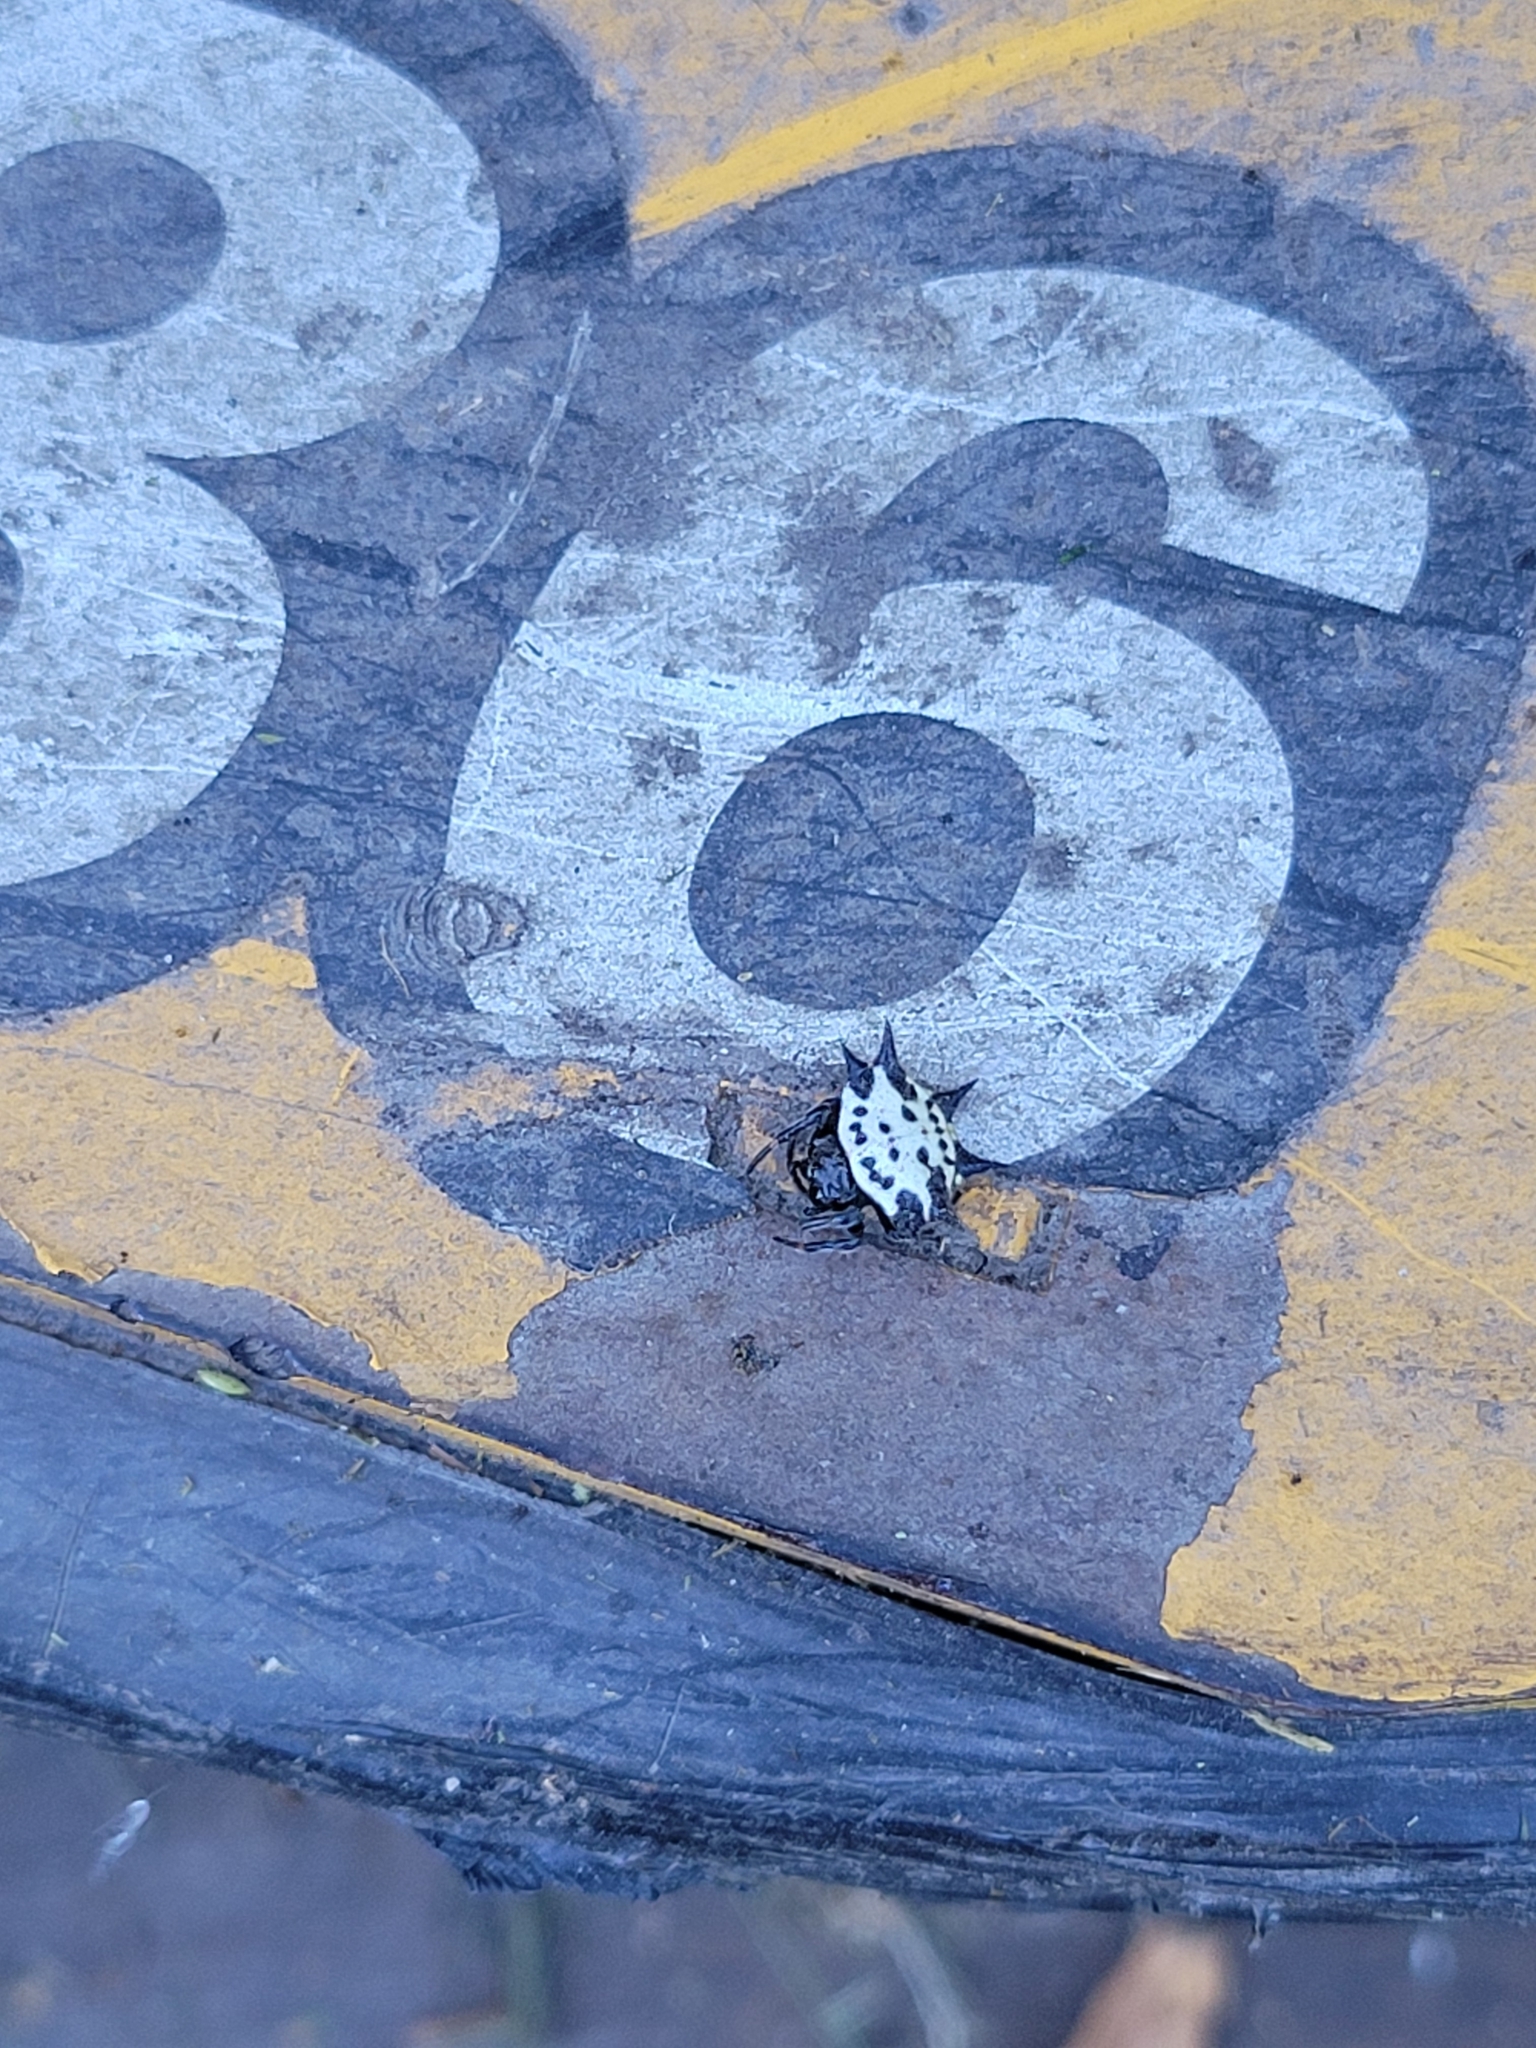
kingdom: Animalia
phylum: Arthropoda
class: Arachnida
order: Araneae
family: Araneidae
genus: Gasteracantha
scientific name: Gasteracantha cancriformis
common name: Orb weavers
